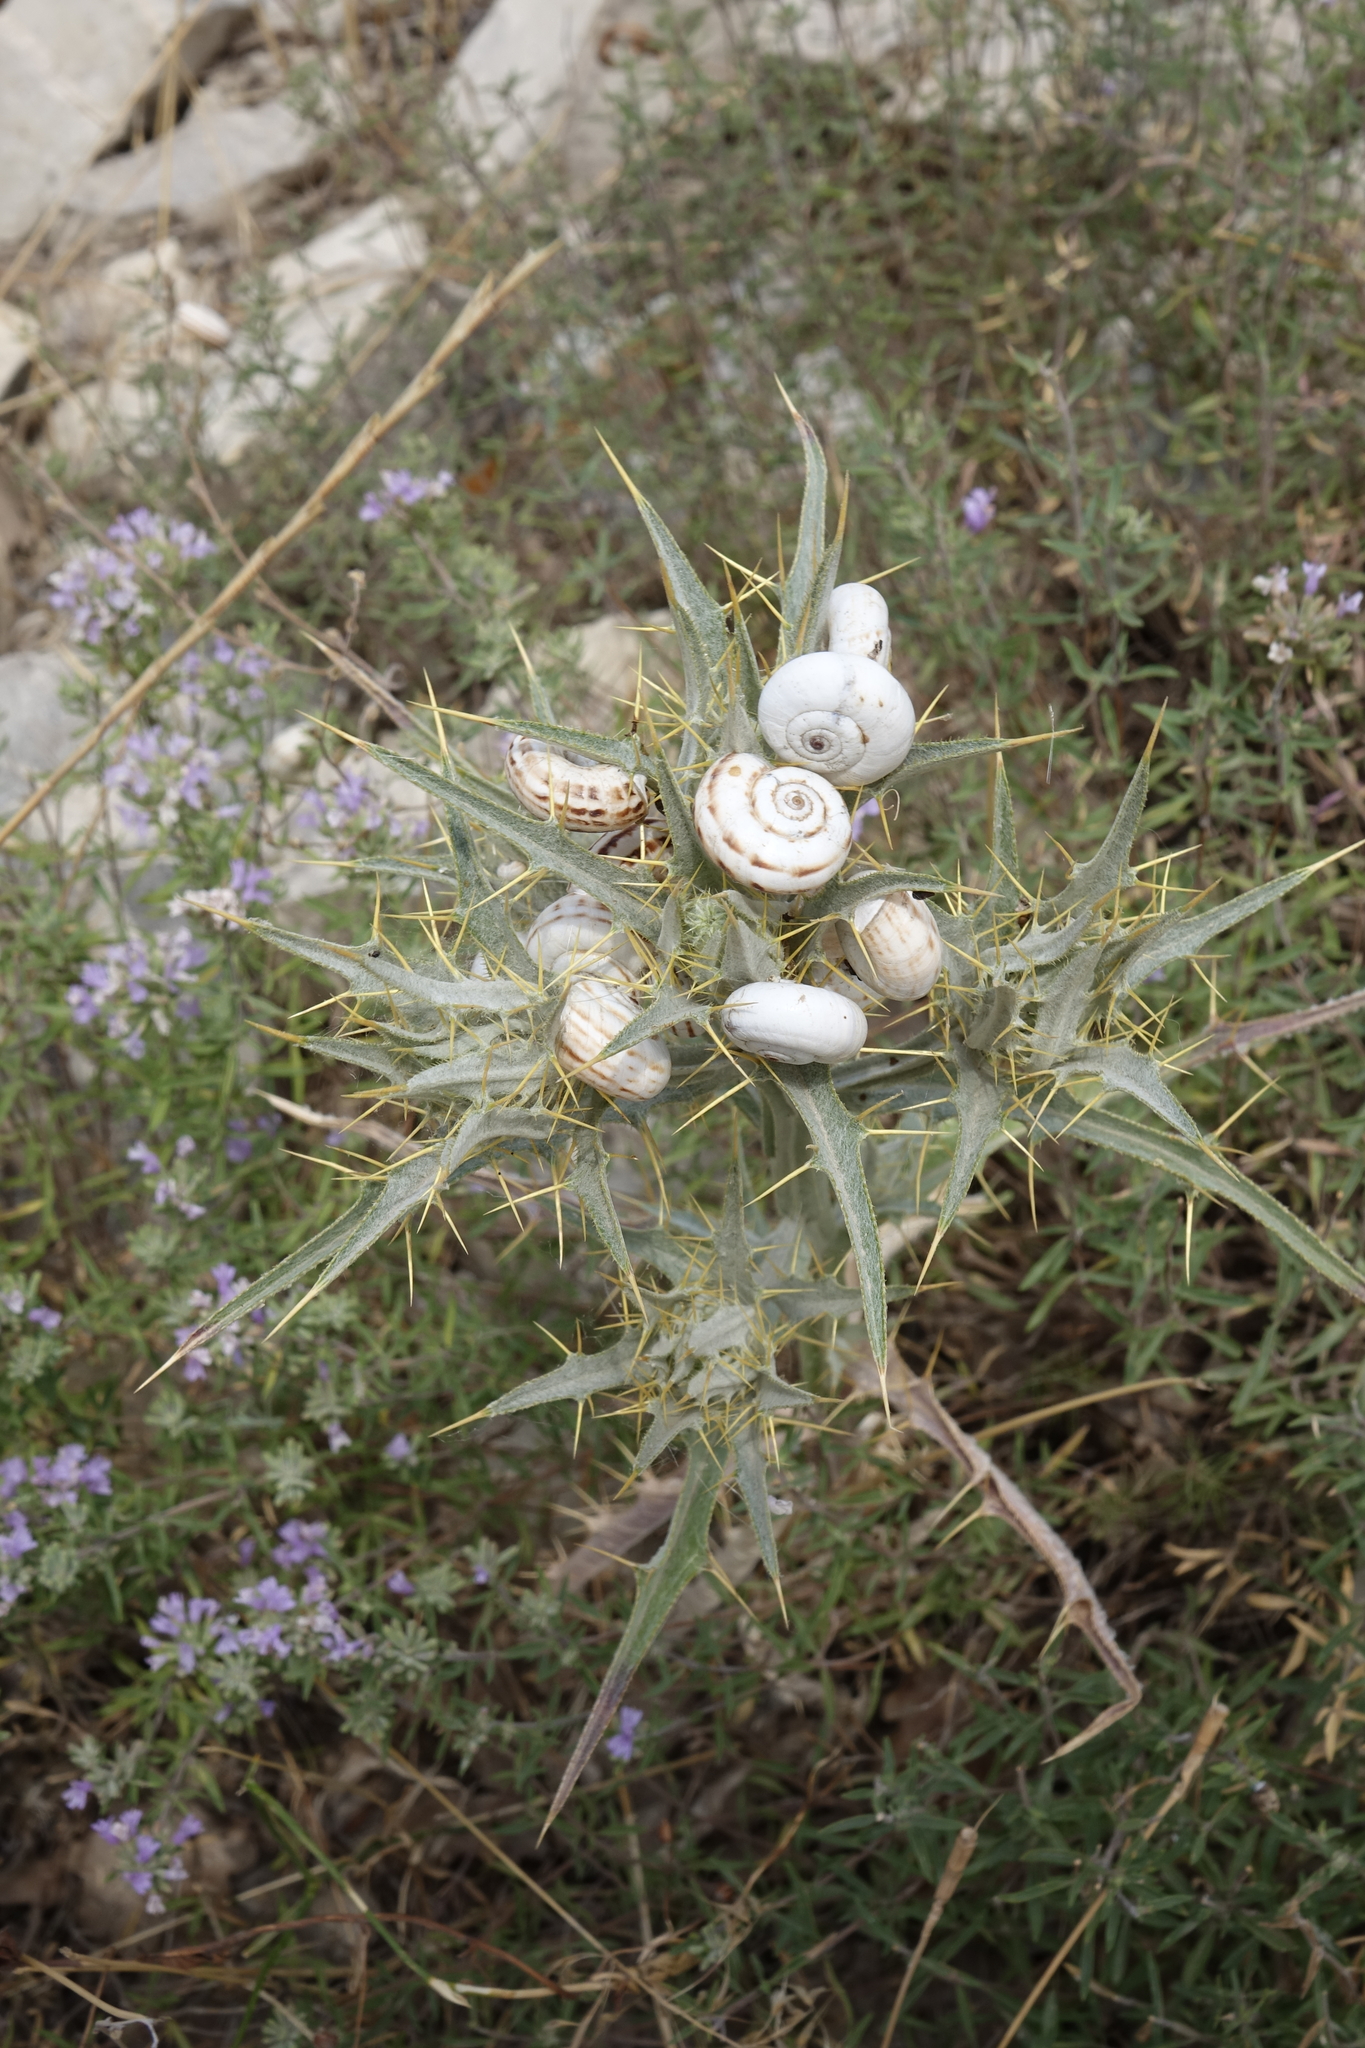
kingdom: Plantae
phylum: Tracheophyta
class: Magnoliopsida
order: Asterales
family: Asteraceae
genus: Picnomon
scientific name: Picnomon acarna
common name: Soldier thistle
